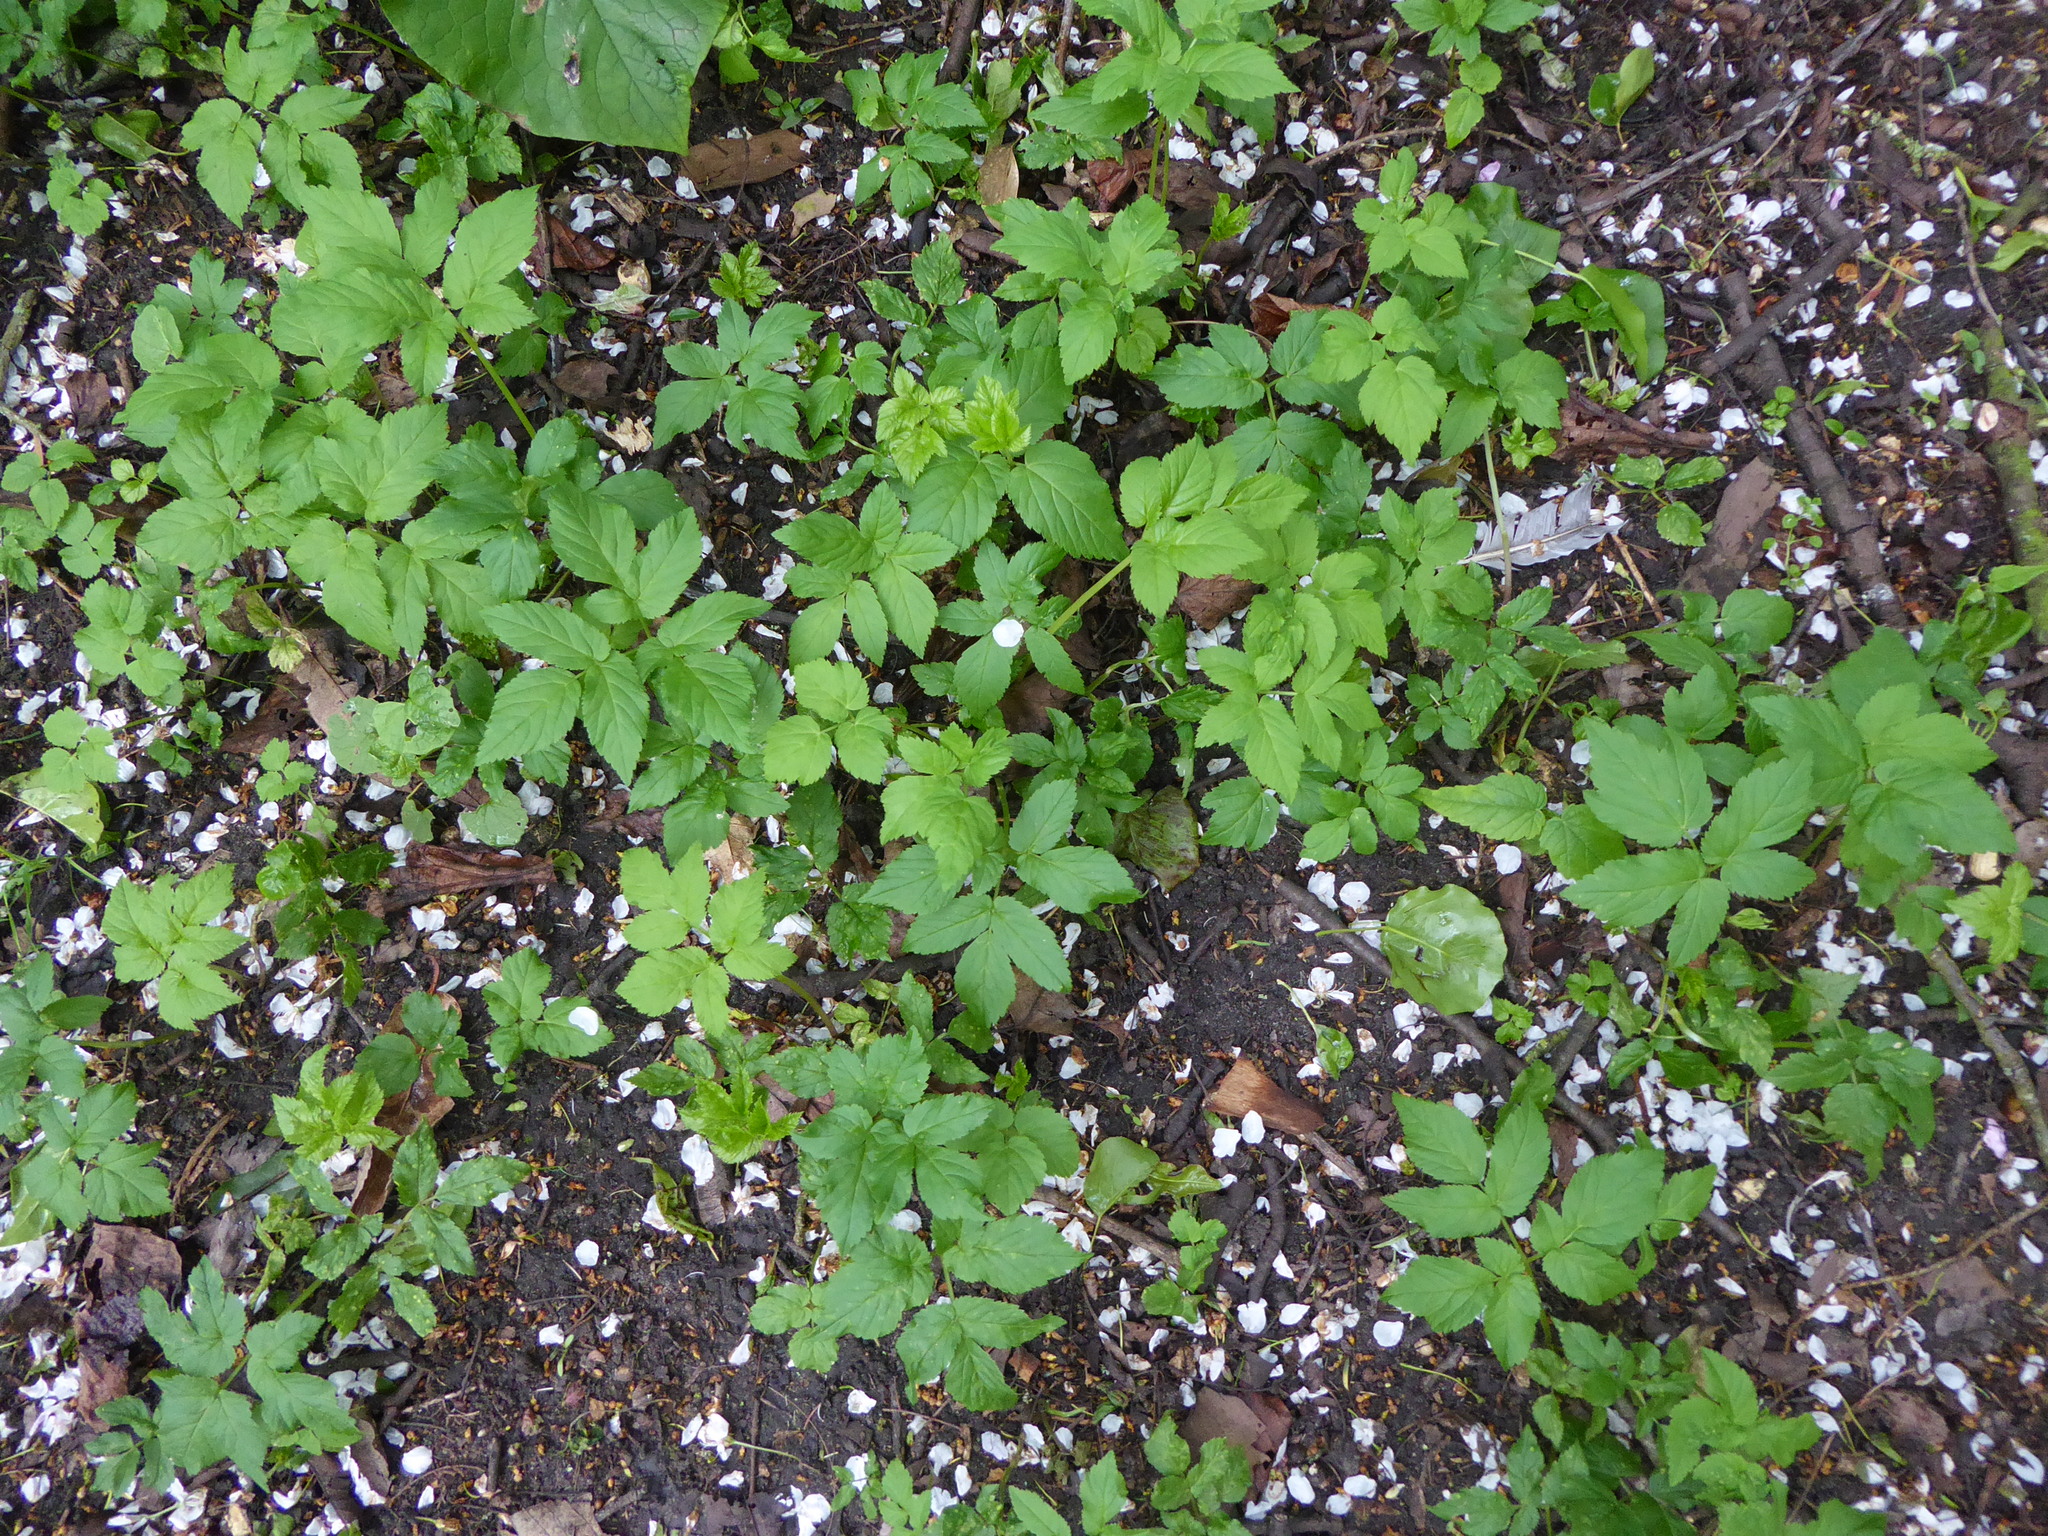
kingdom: Plantae
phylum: Tracheophyta
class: Magnoliopsida
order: Apiales
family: Apiaceae
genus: Aegopodium
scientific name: Aegopodium podagraria
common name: Ground-elder
